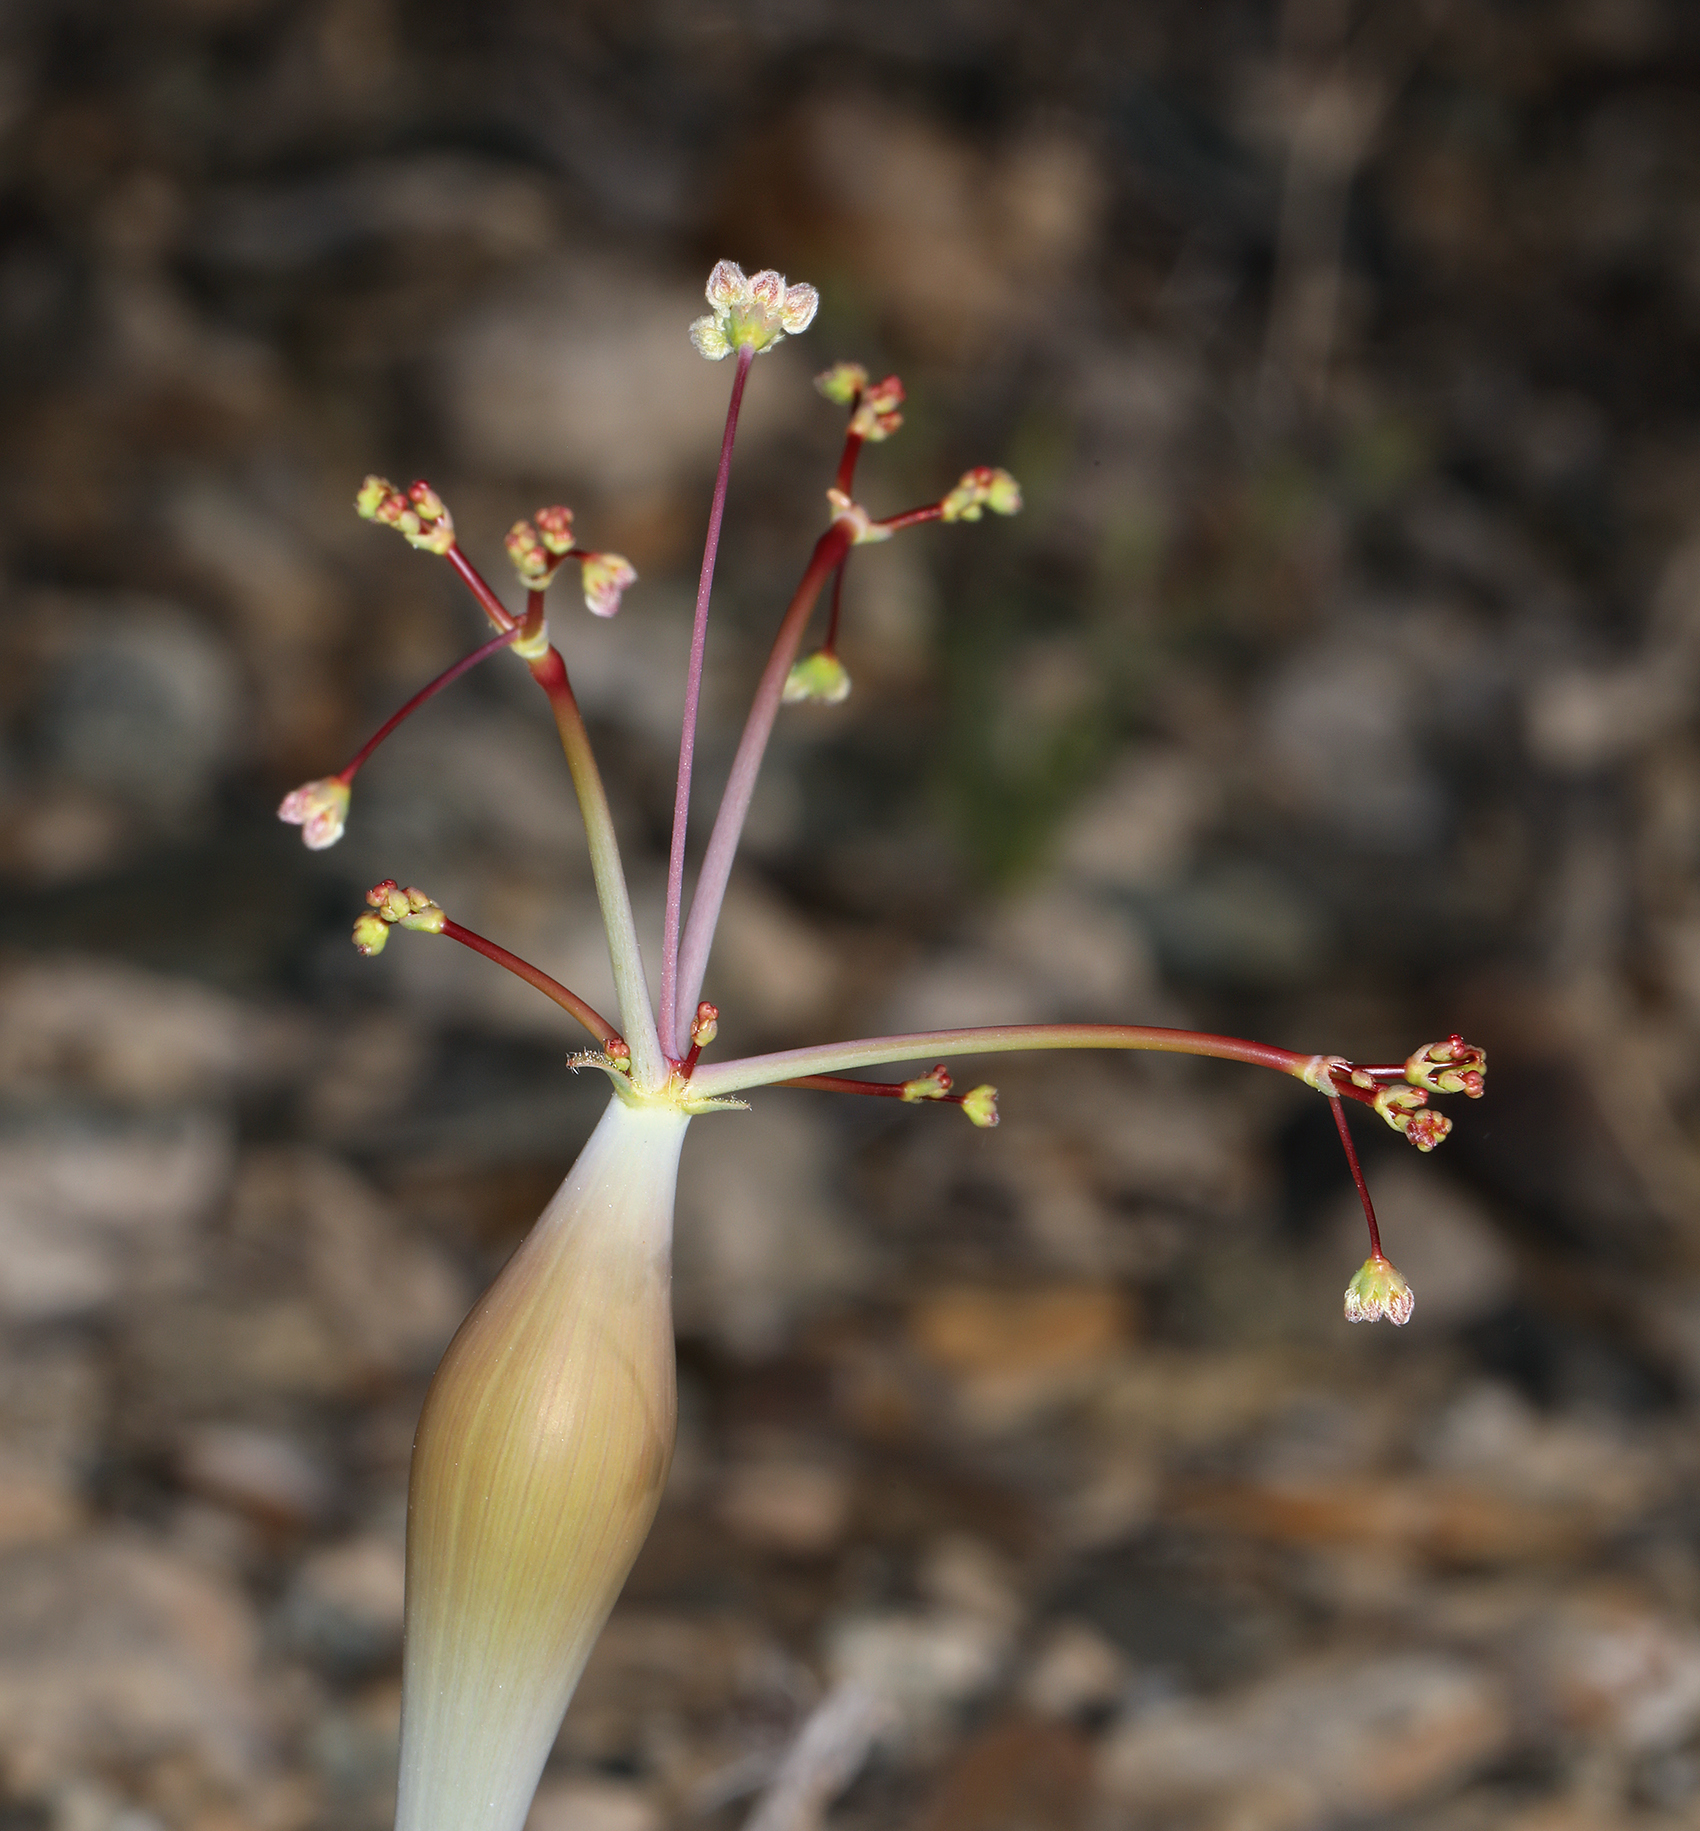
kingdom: Plantae
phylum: Tracheophyta
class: Magnoliopsida
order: Caryophyllales
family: Polygonaceae
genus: Eriogonum
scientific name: Eriogonum inflatum
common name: Desert trumpet
